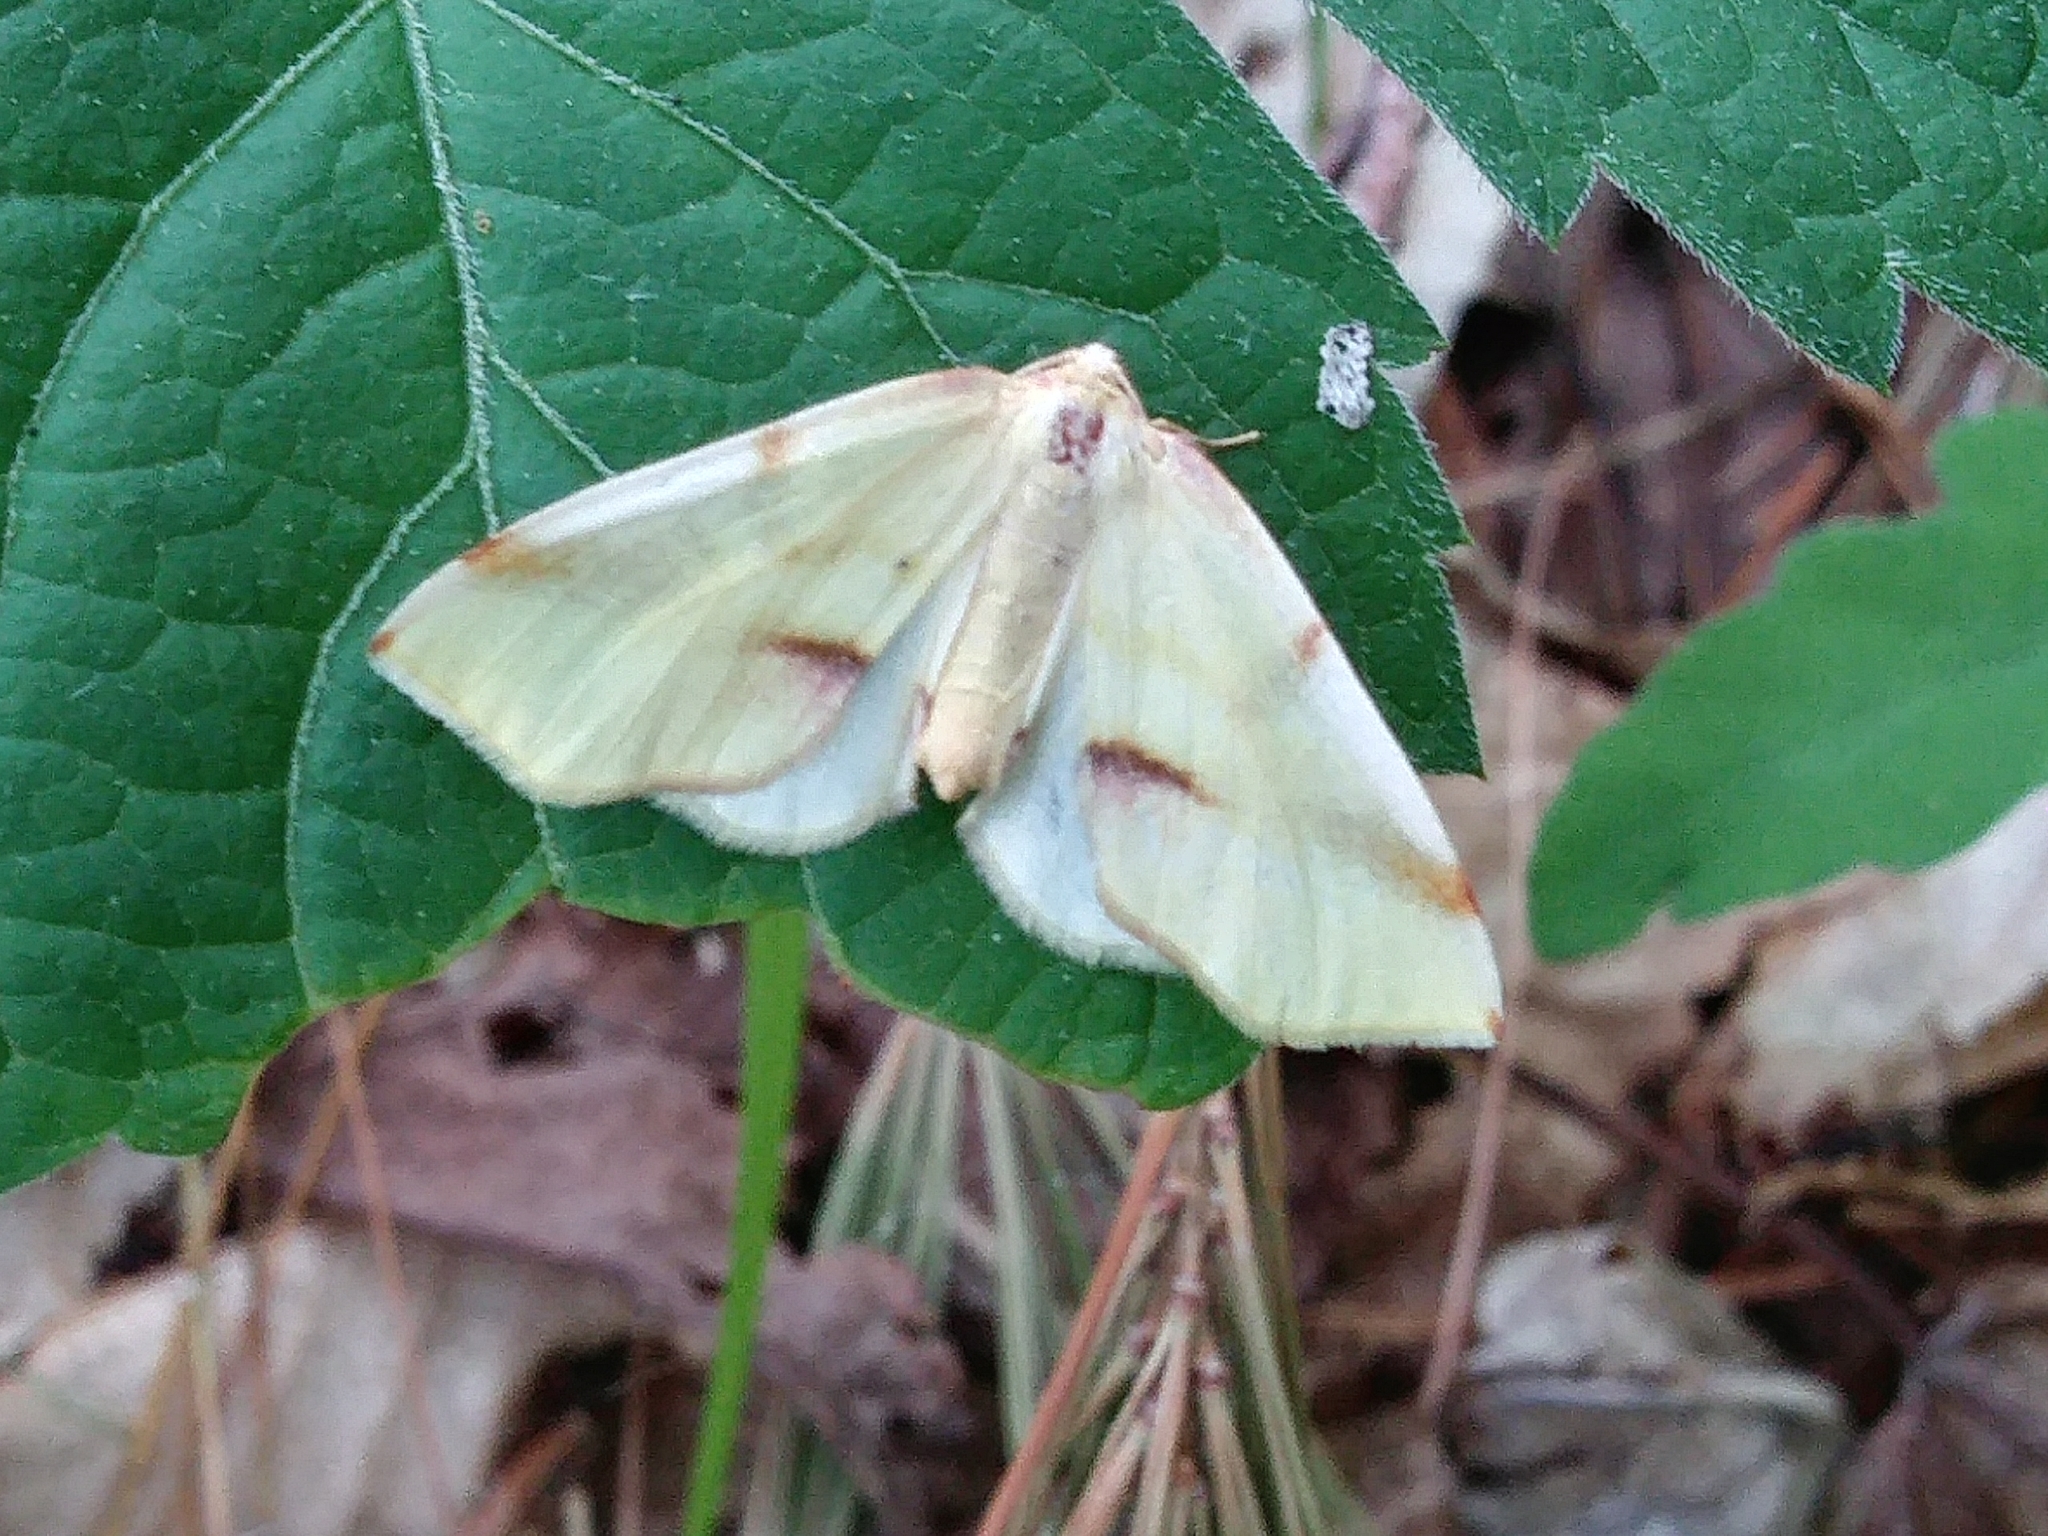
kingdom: Animalia
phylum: Arthropoda
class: Insecta
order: Lepidoptera
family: Geometridae
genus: Plagodis
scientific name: Plagodis serinaria
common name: Lemon plagodis
